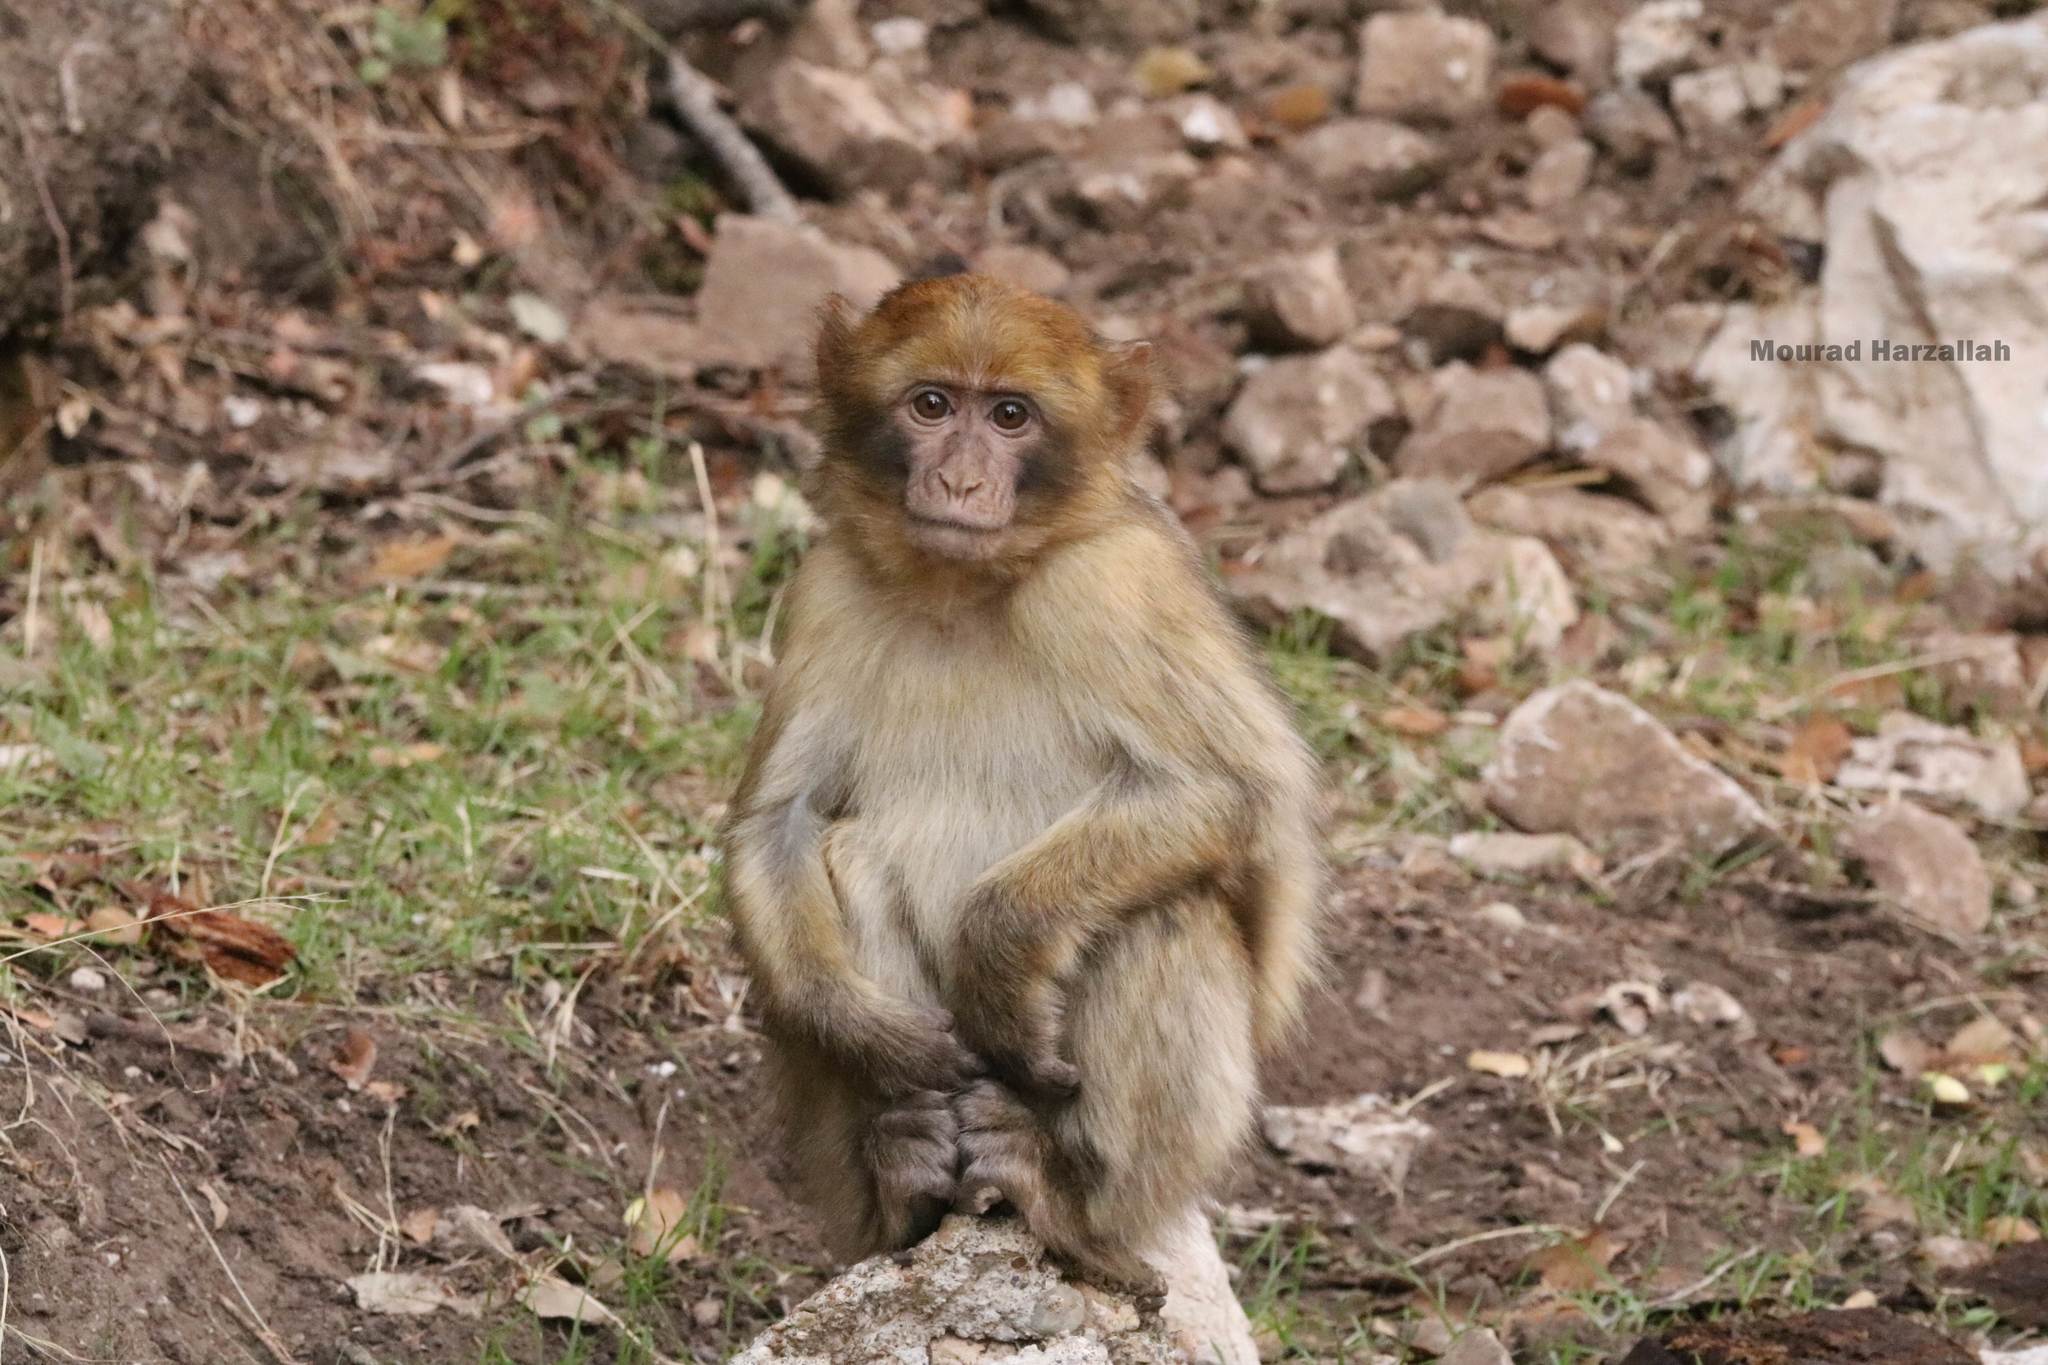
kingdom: Animalia
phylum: Chordata
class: Mammalia
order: Primates
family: Cercopithecidae
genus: Macaca
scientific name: Macaca sylvanus
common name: Barbary macaque
